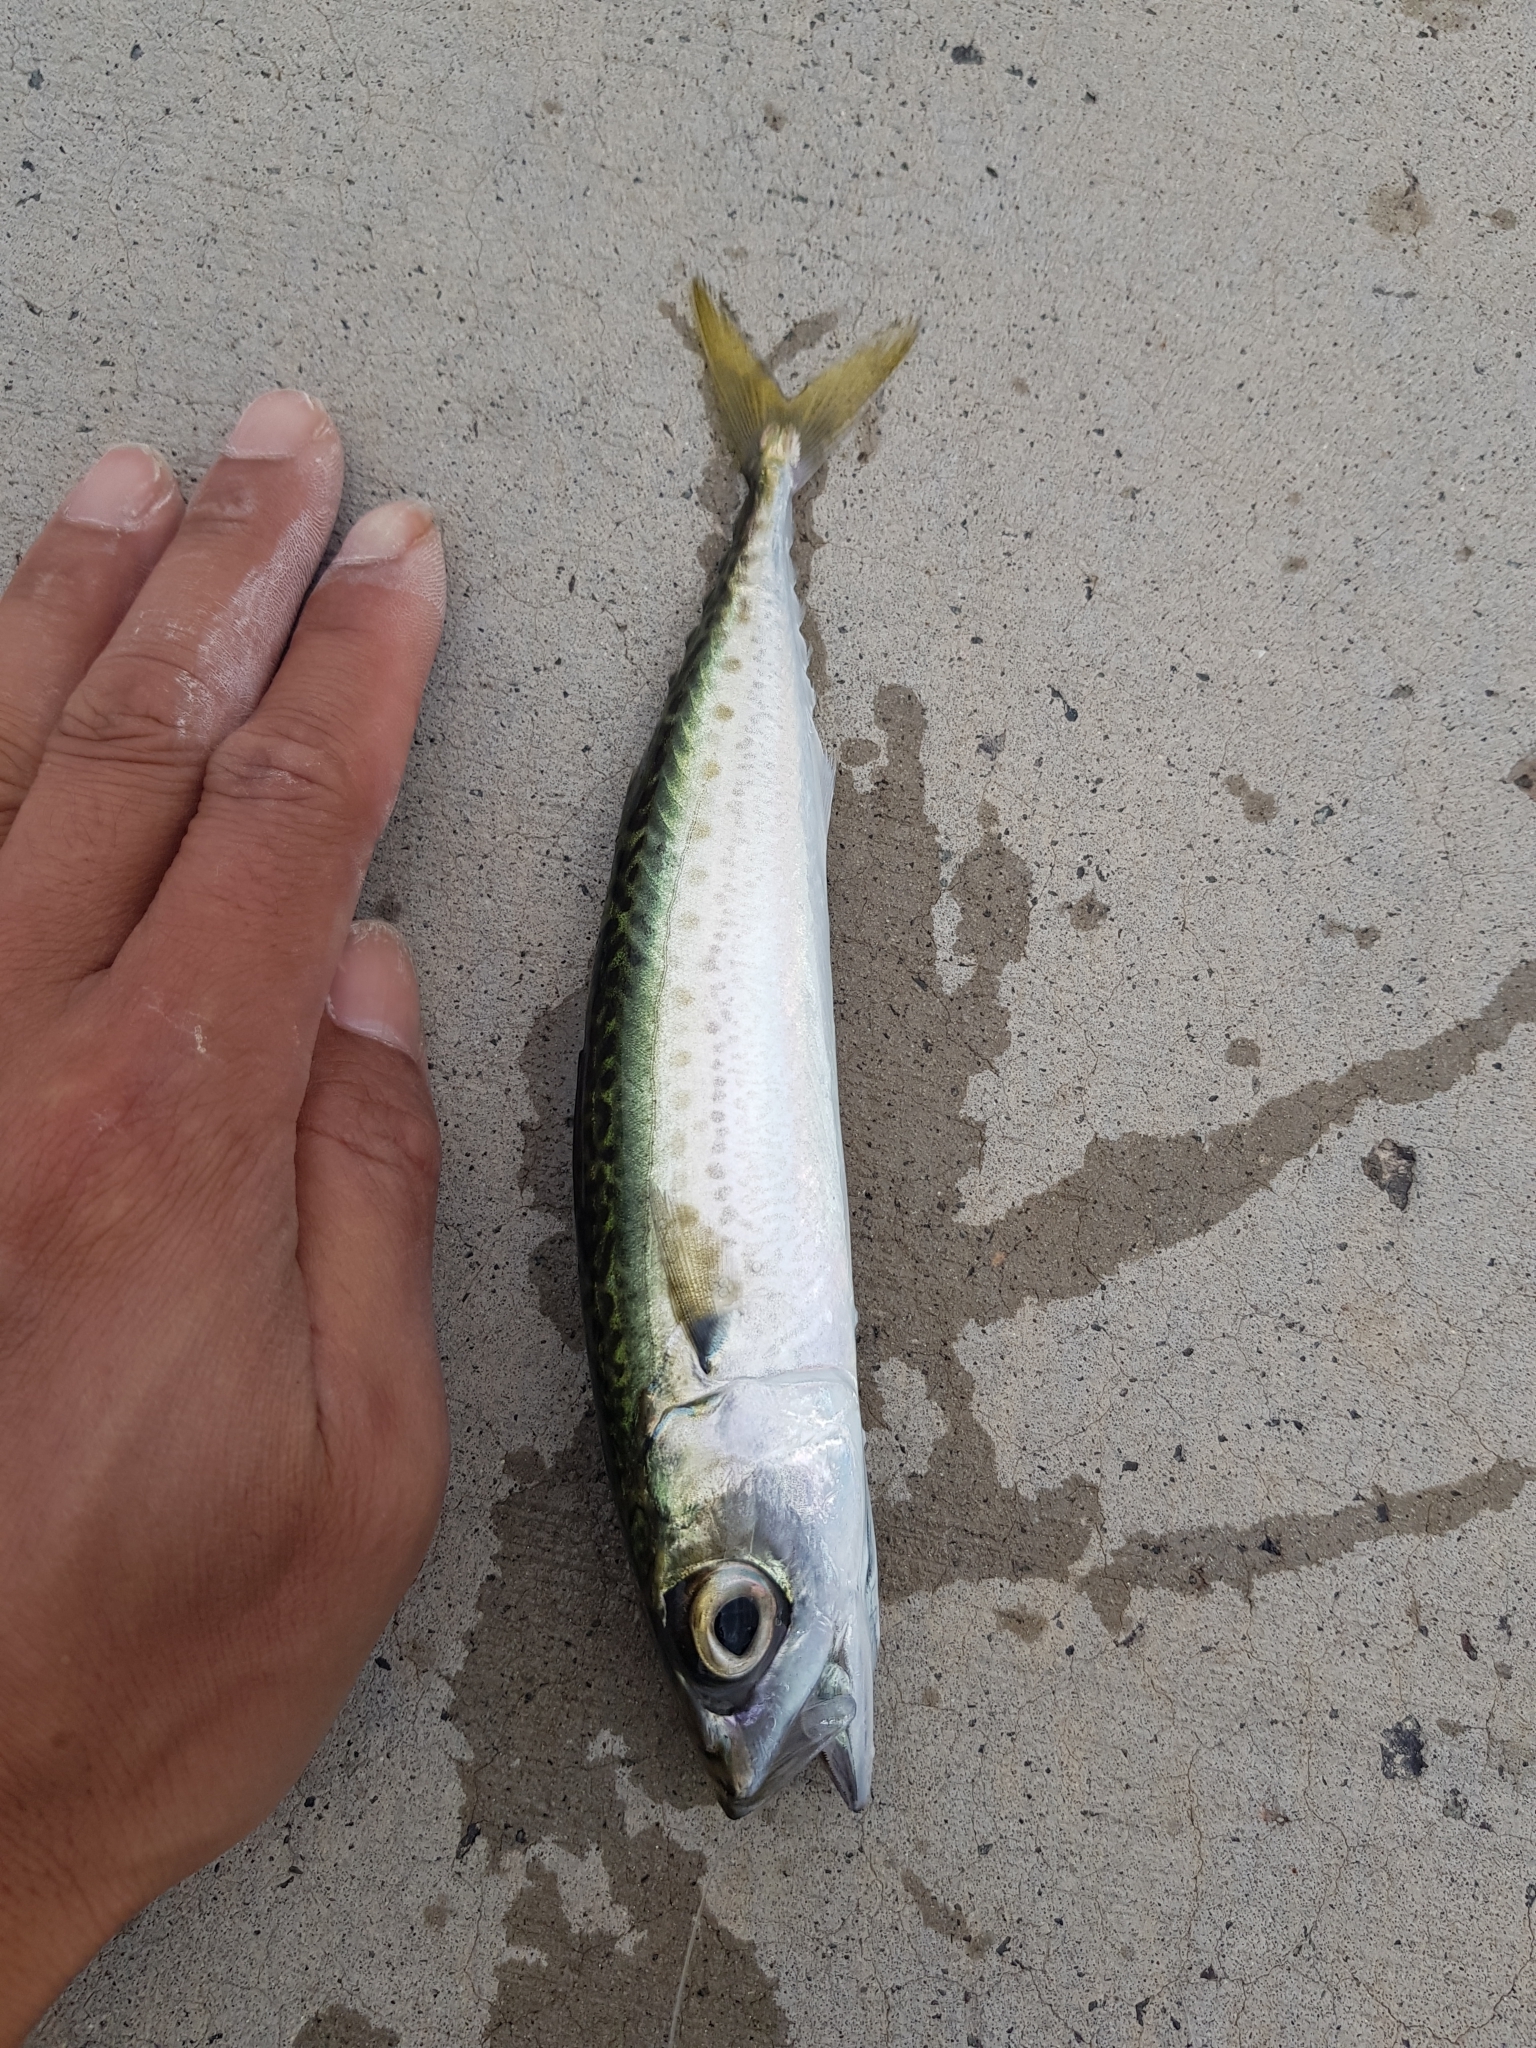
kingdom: Animalia
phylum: Chordata
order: Perciformes
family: Scombridae
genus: Scomber
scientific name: Scomber australasicus
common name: Blue mackerel
